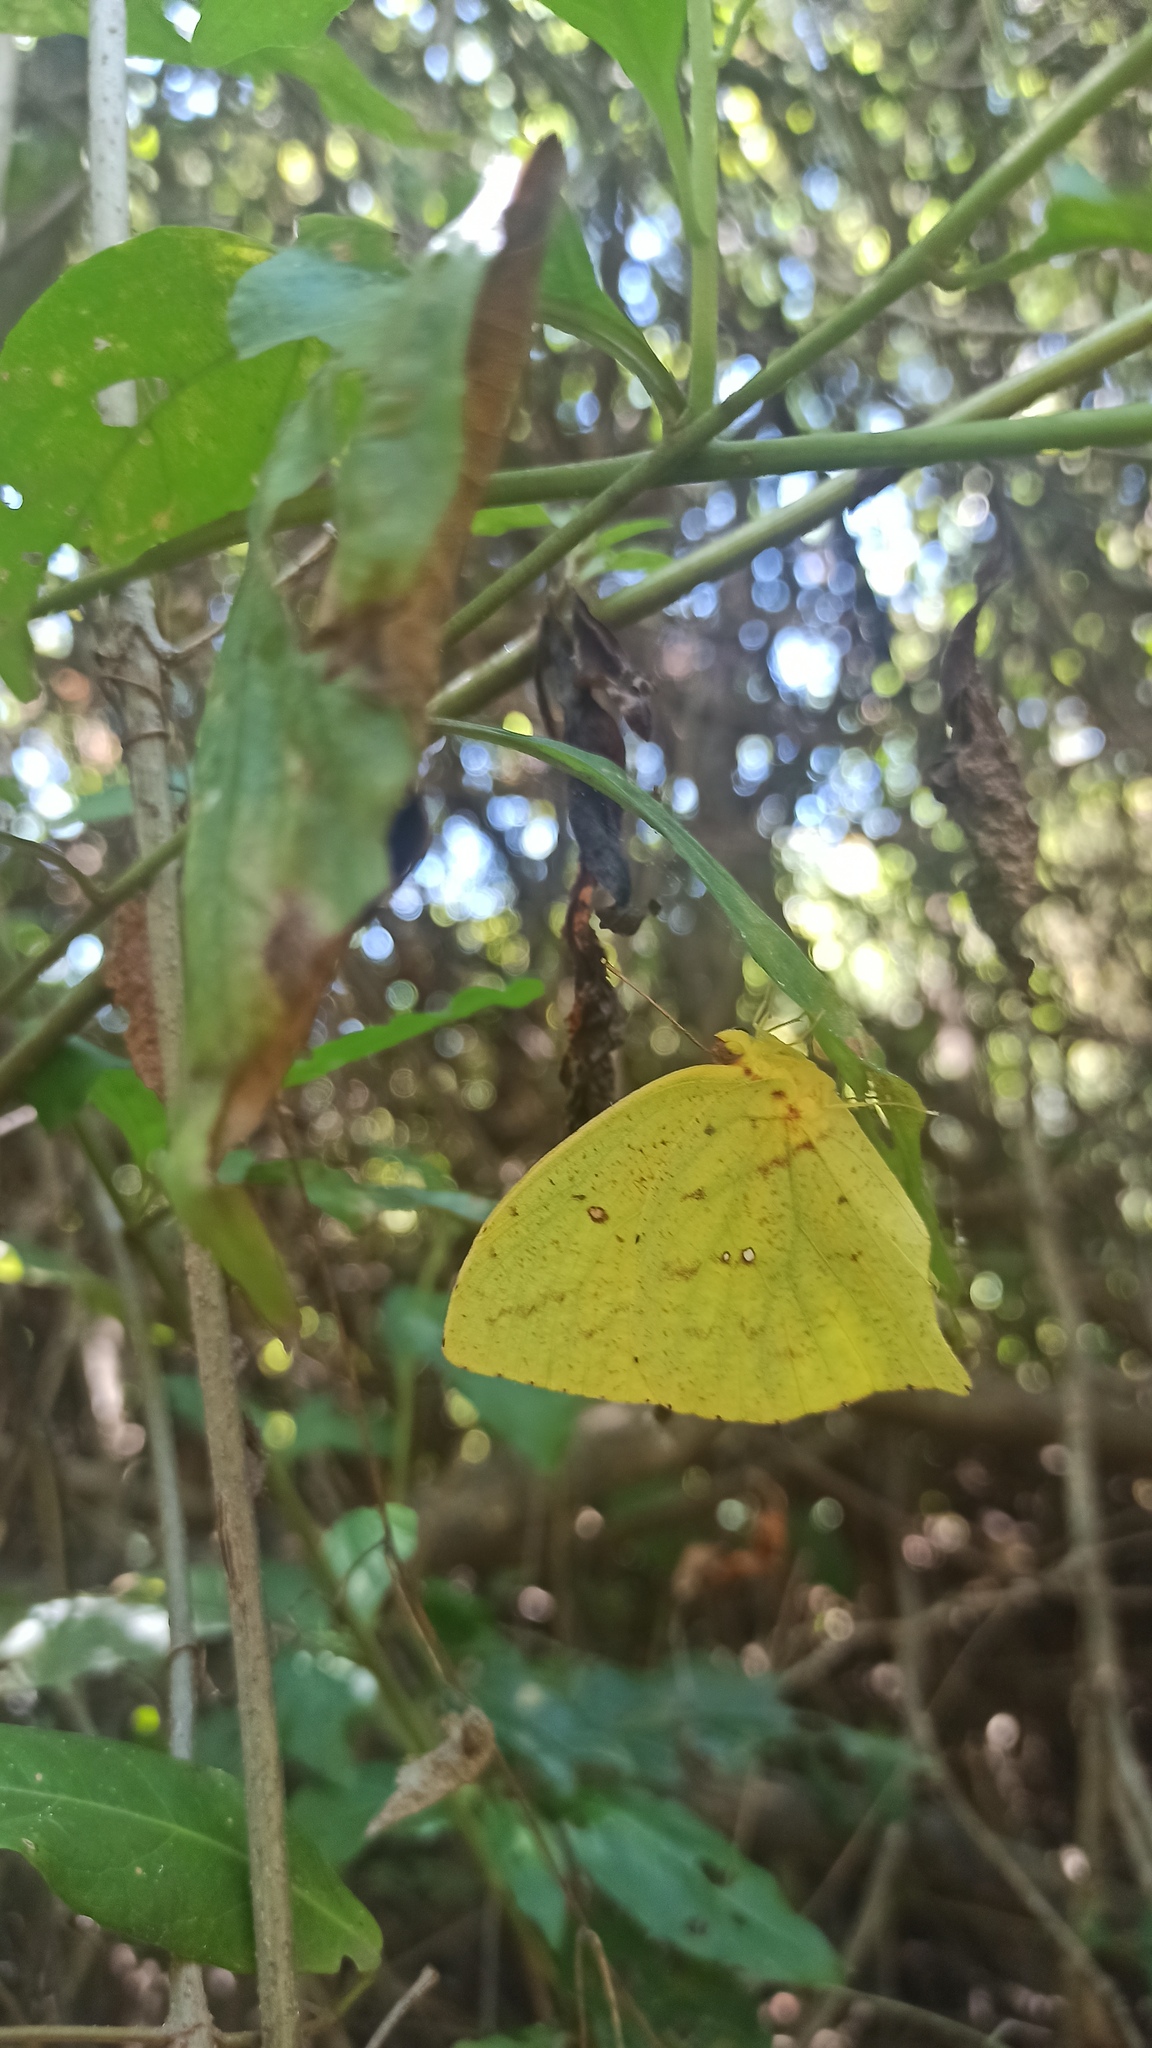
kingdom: Animalia
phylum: Arthropoda
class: Insecta
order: Lepidoptera
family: Pieridae
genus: Phoebis
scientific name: Phoebis neocypris
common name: Tailed sulphur
